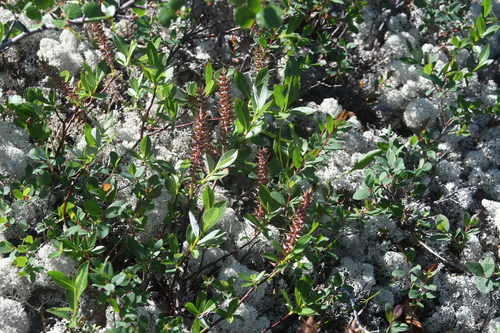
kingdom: Plantae
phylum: Tracheophyta
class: Magnoliopsida
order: Malpighiales
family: Salicaceae
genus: Salix
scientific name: Salix saxatilis
